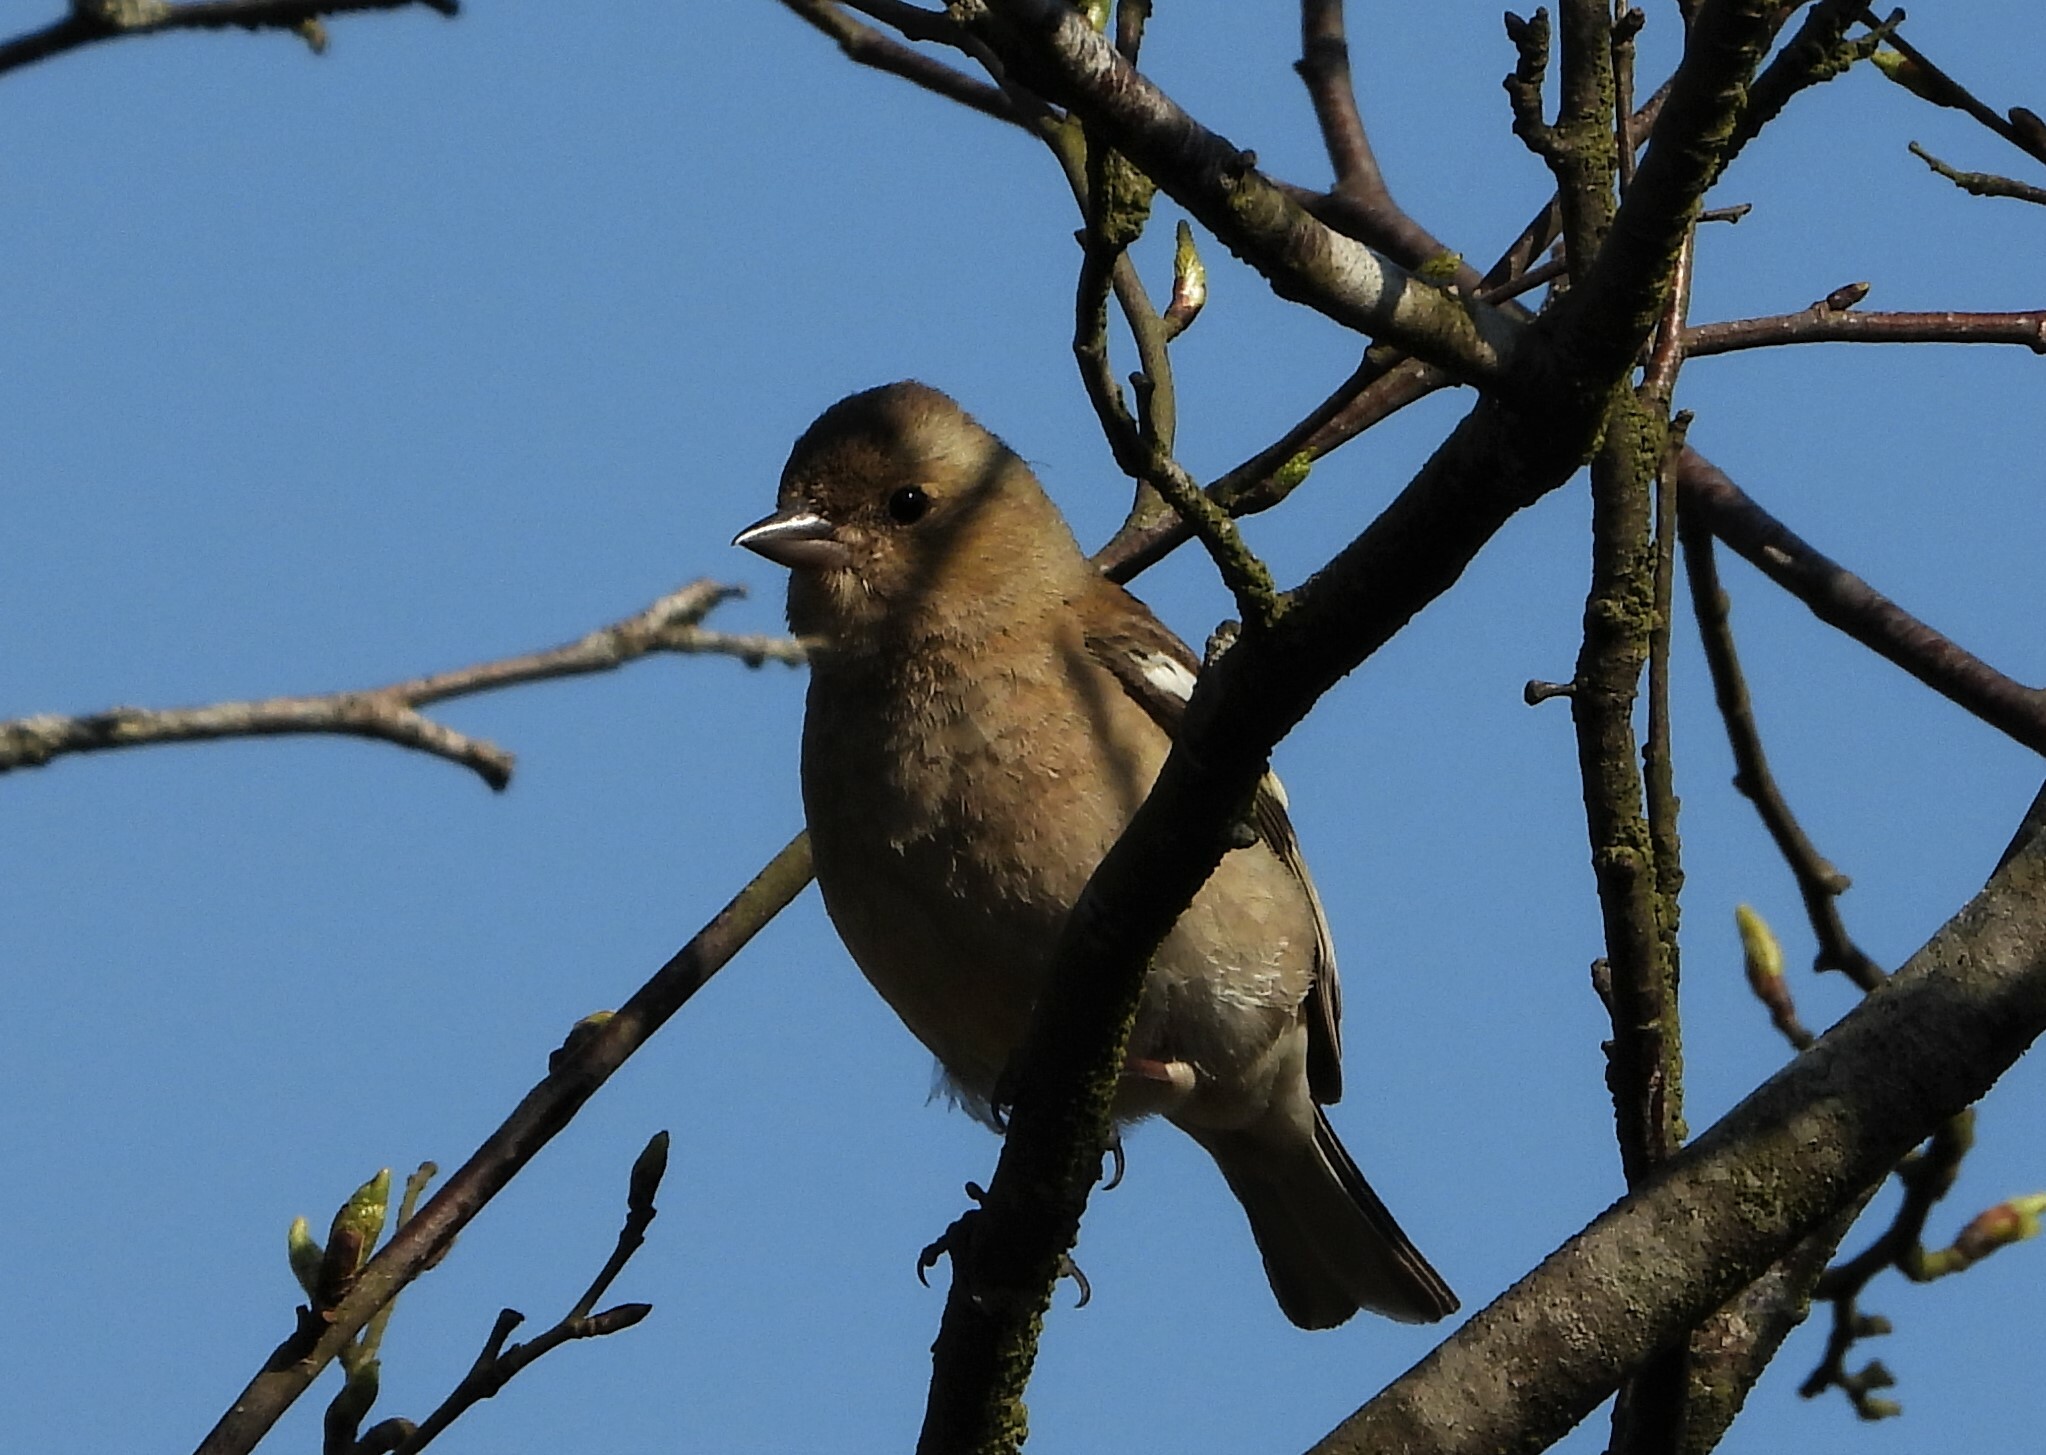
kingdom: Animalia
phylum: Chordata
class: Aves
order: Passeriformes
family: Fringillidae
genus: Fringilla
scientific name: Fringilla coelebs
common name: Common chaffinch
